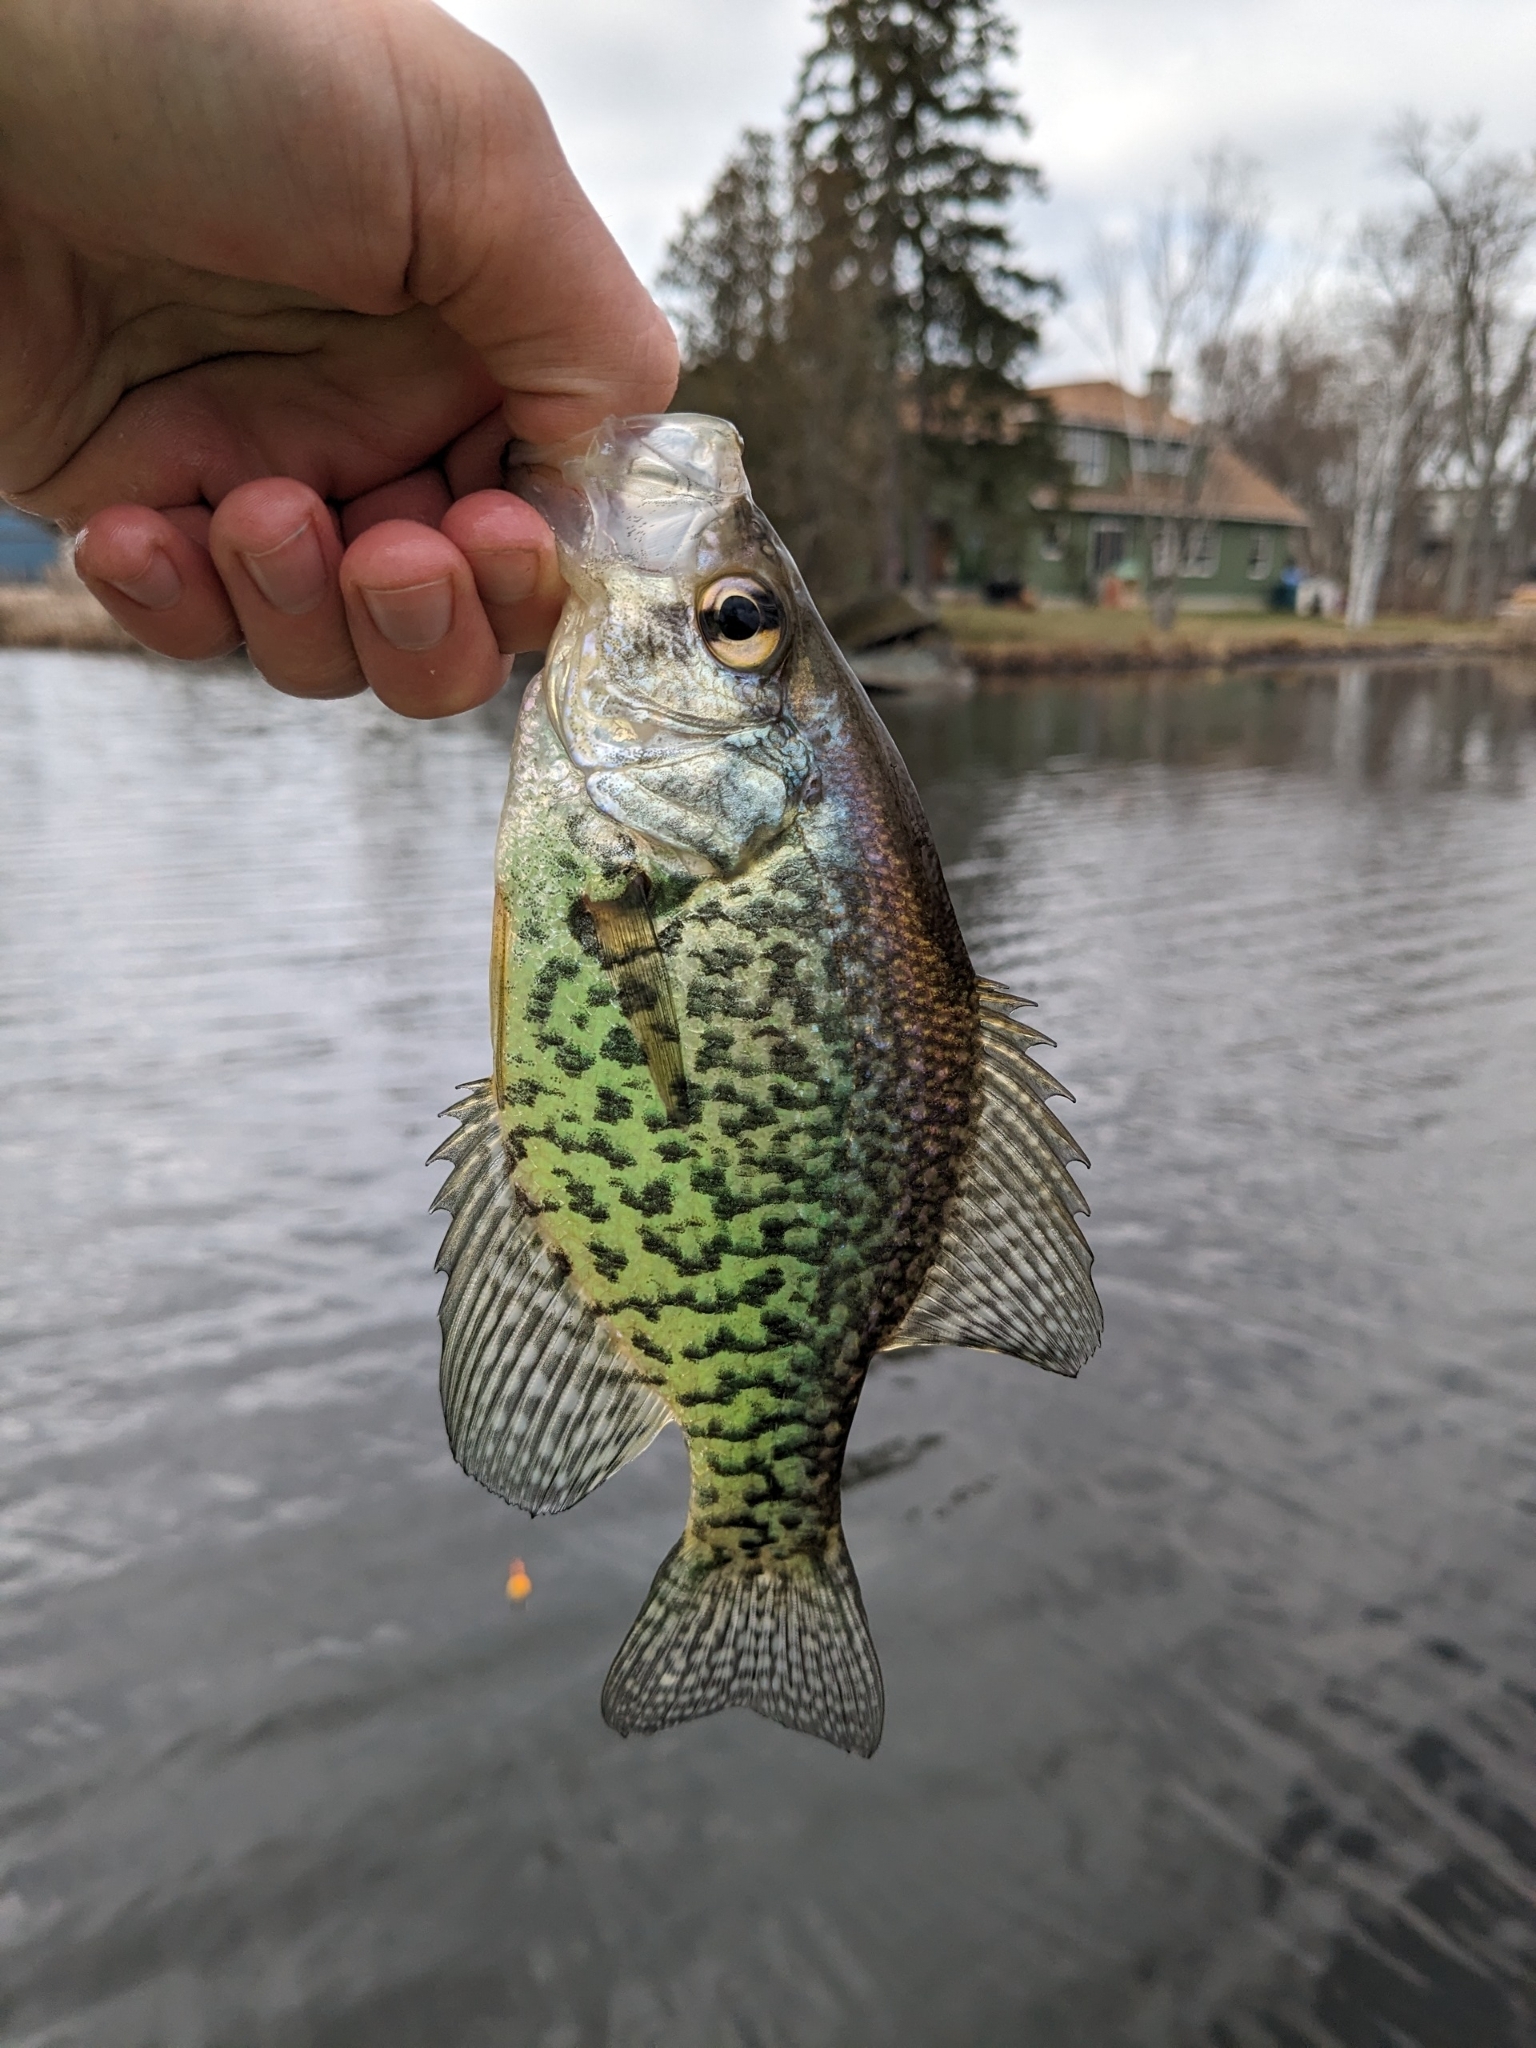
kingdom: Animalia
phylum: Chordata
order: Perciformes
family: Centrarchidae
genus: Pomoxis
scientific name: Pomoxis nigromaculatus
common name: Black crappie
